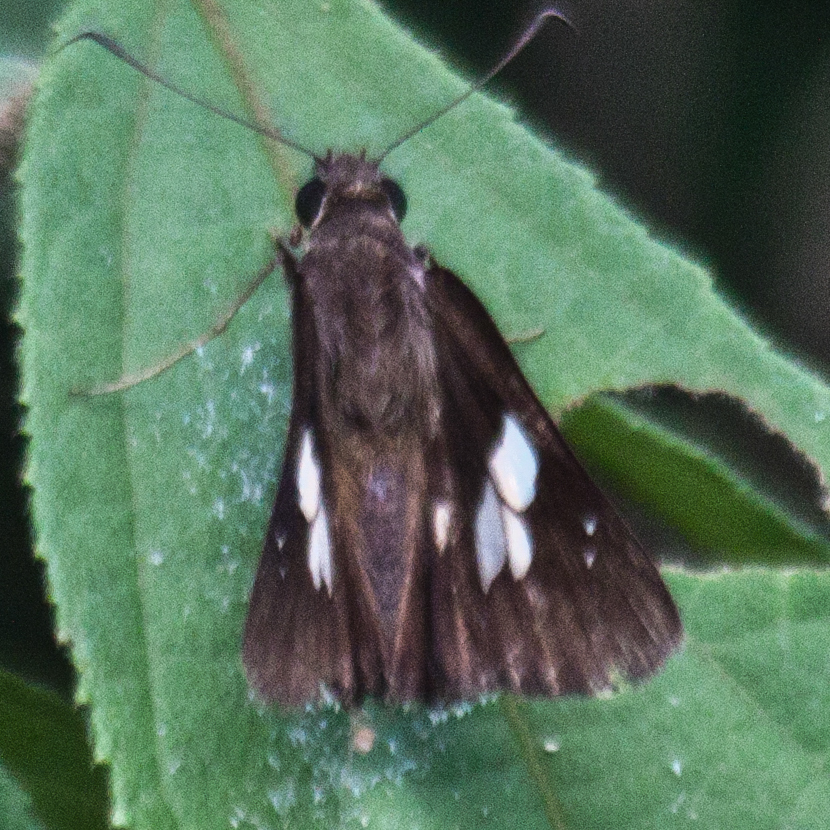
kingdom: Animalia
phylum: Arthropoda
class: Insecta
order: Lepidoptera
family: Hesperiidae
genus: Lotongus
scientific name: Lotongus calathus
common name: White-tipped palmer
